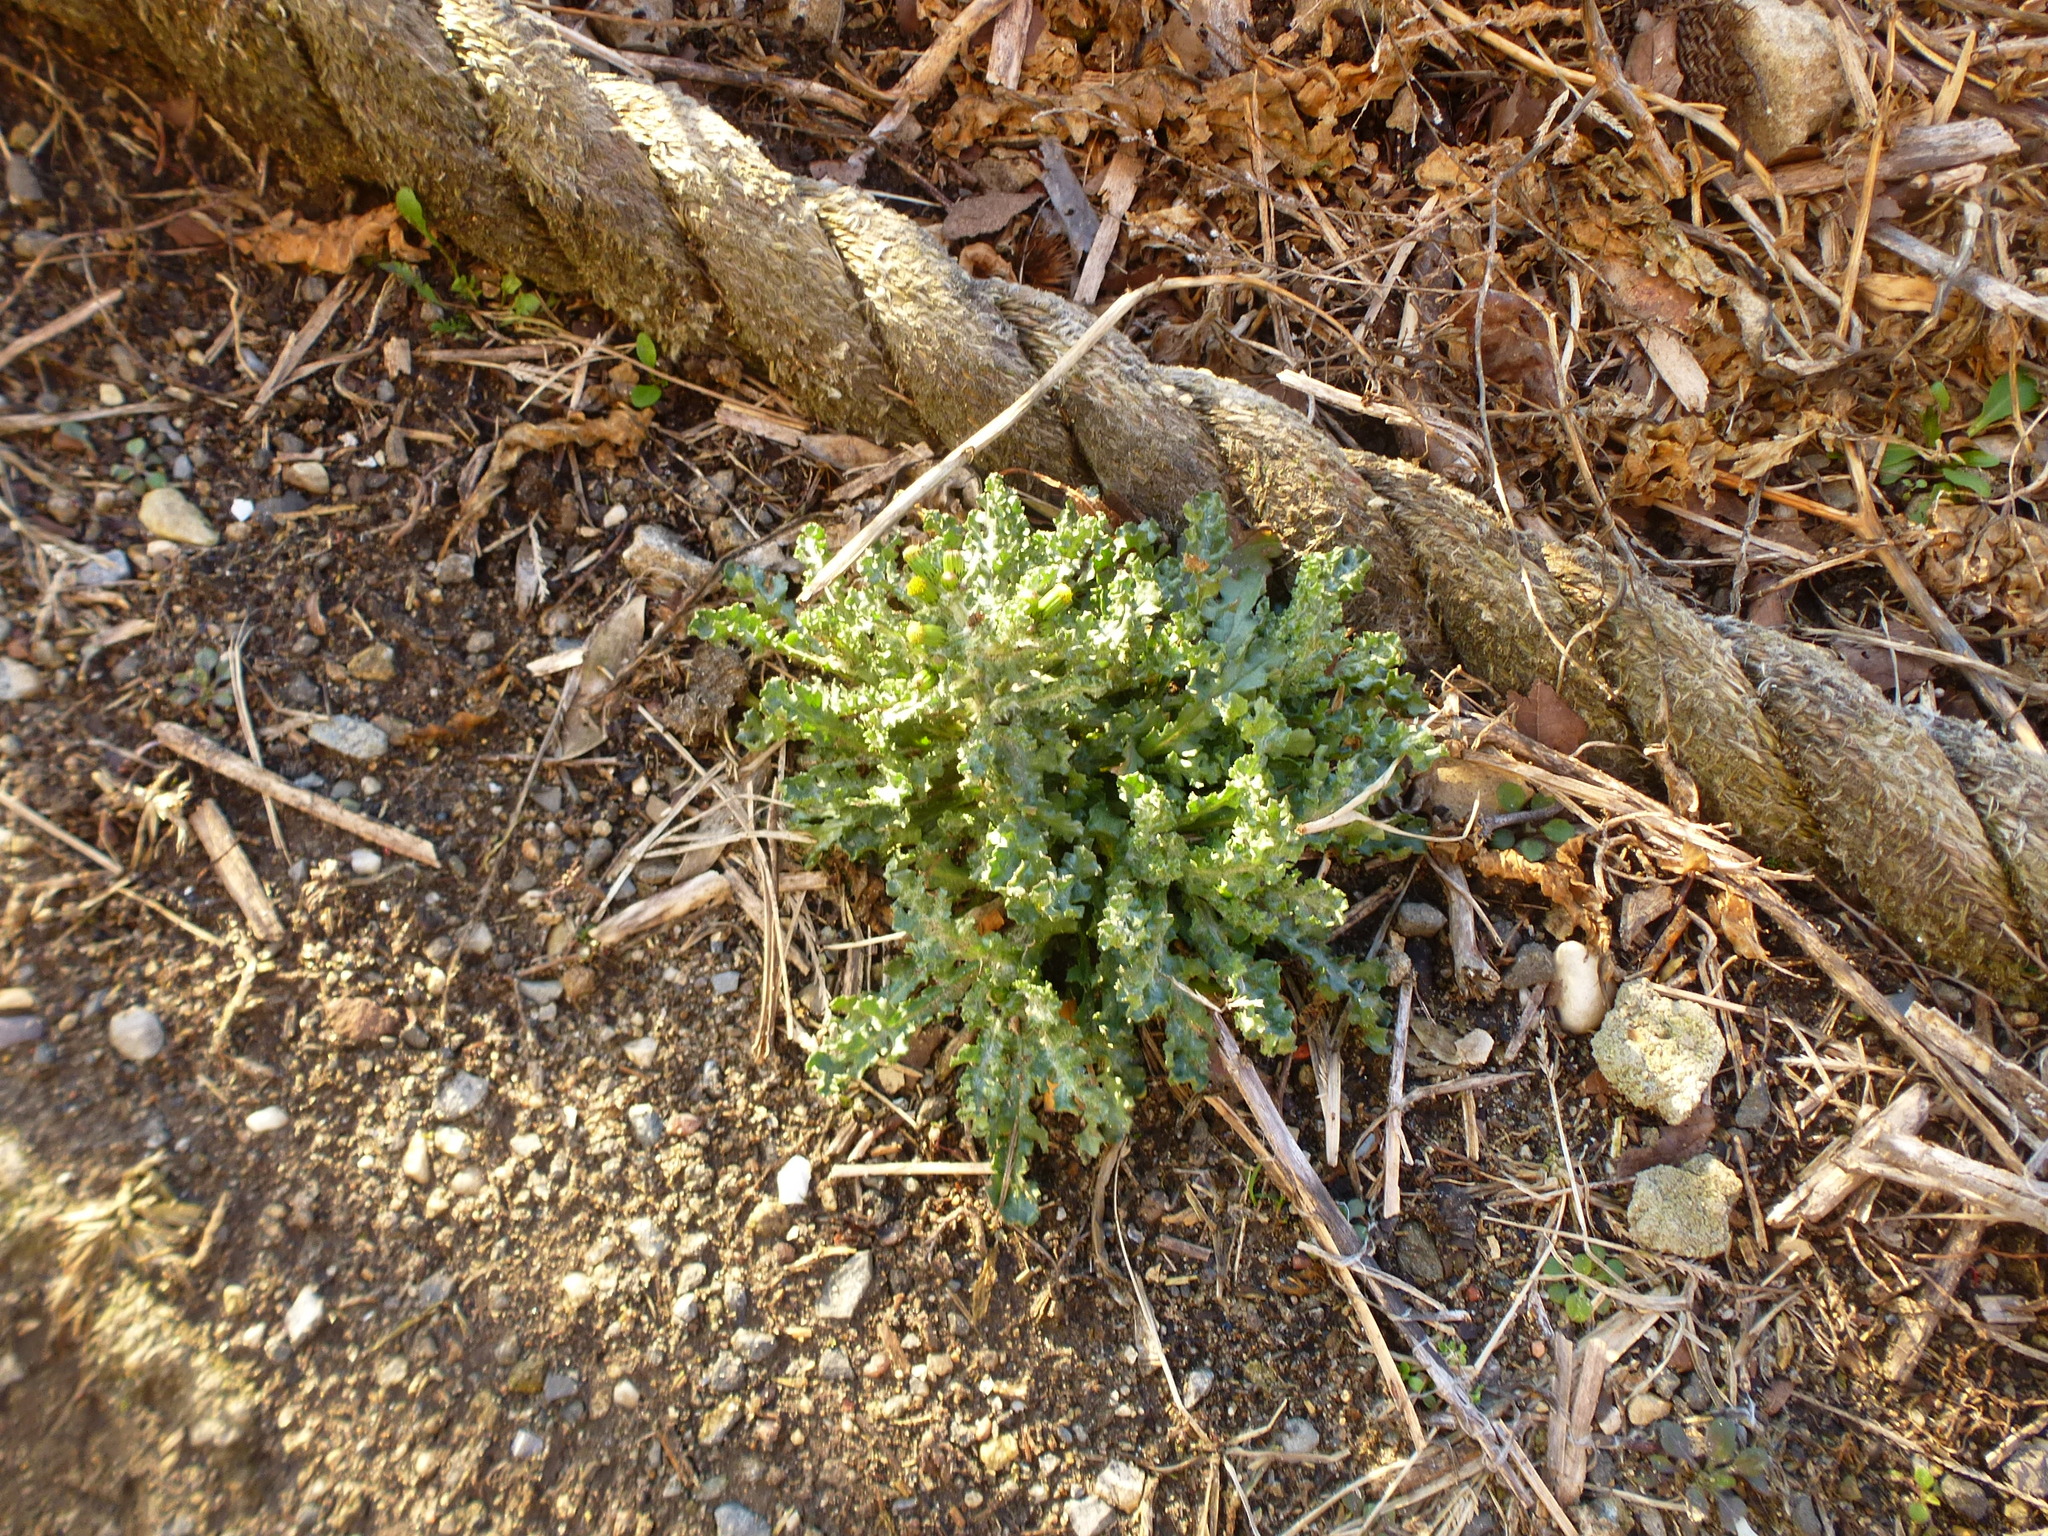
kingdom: Plantae
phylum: Tracheophyta
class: Magnoliopsida
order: Asterales
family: Asteraceae
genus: Senecio
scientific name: Senecio vulgaris
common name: Old-man-in-the-spring
